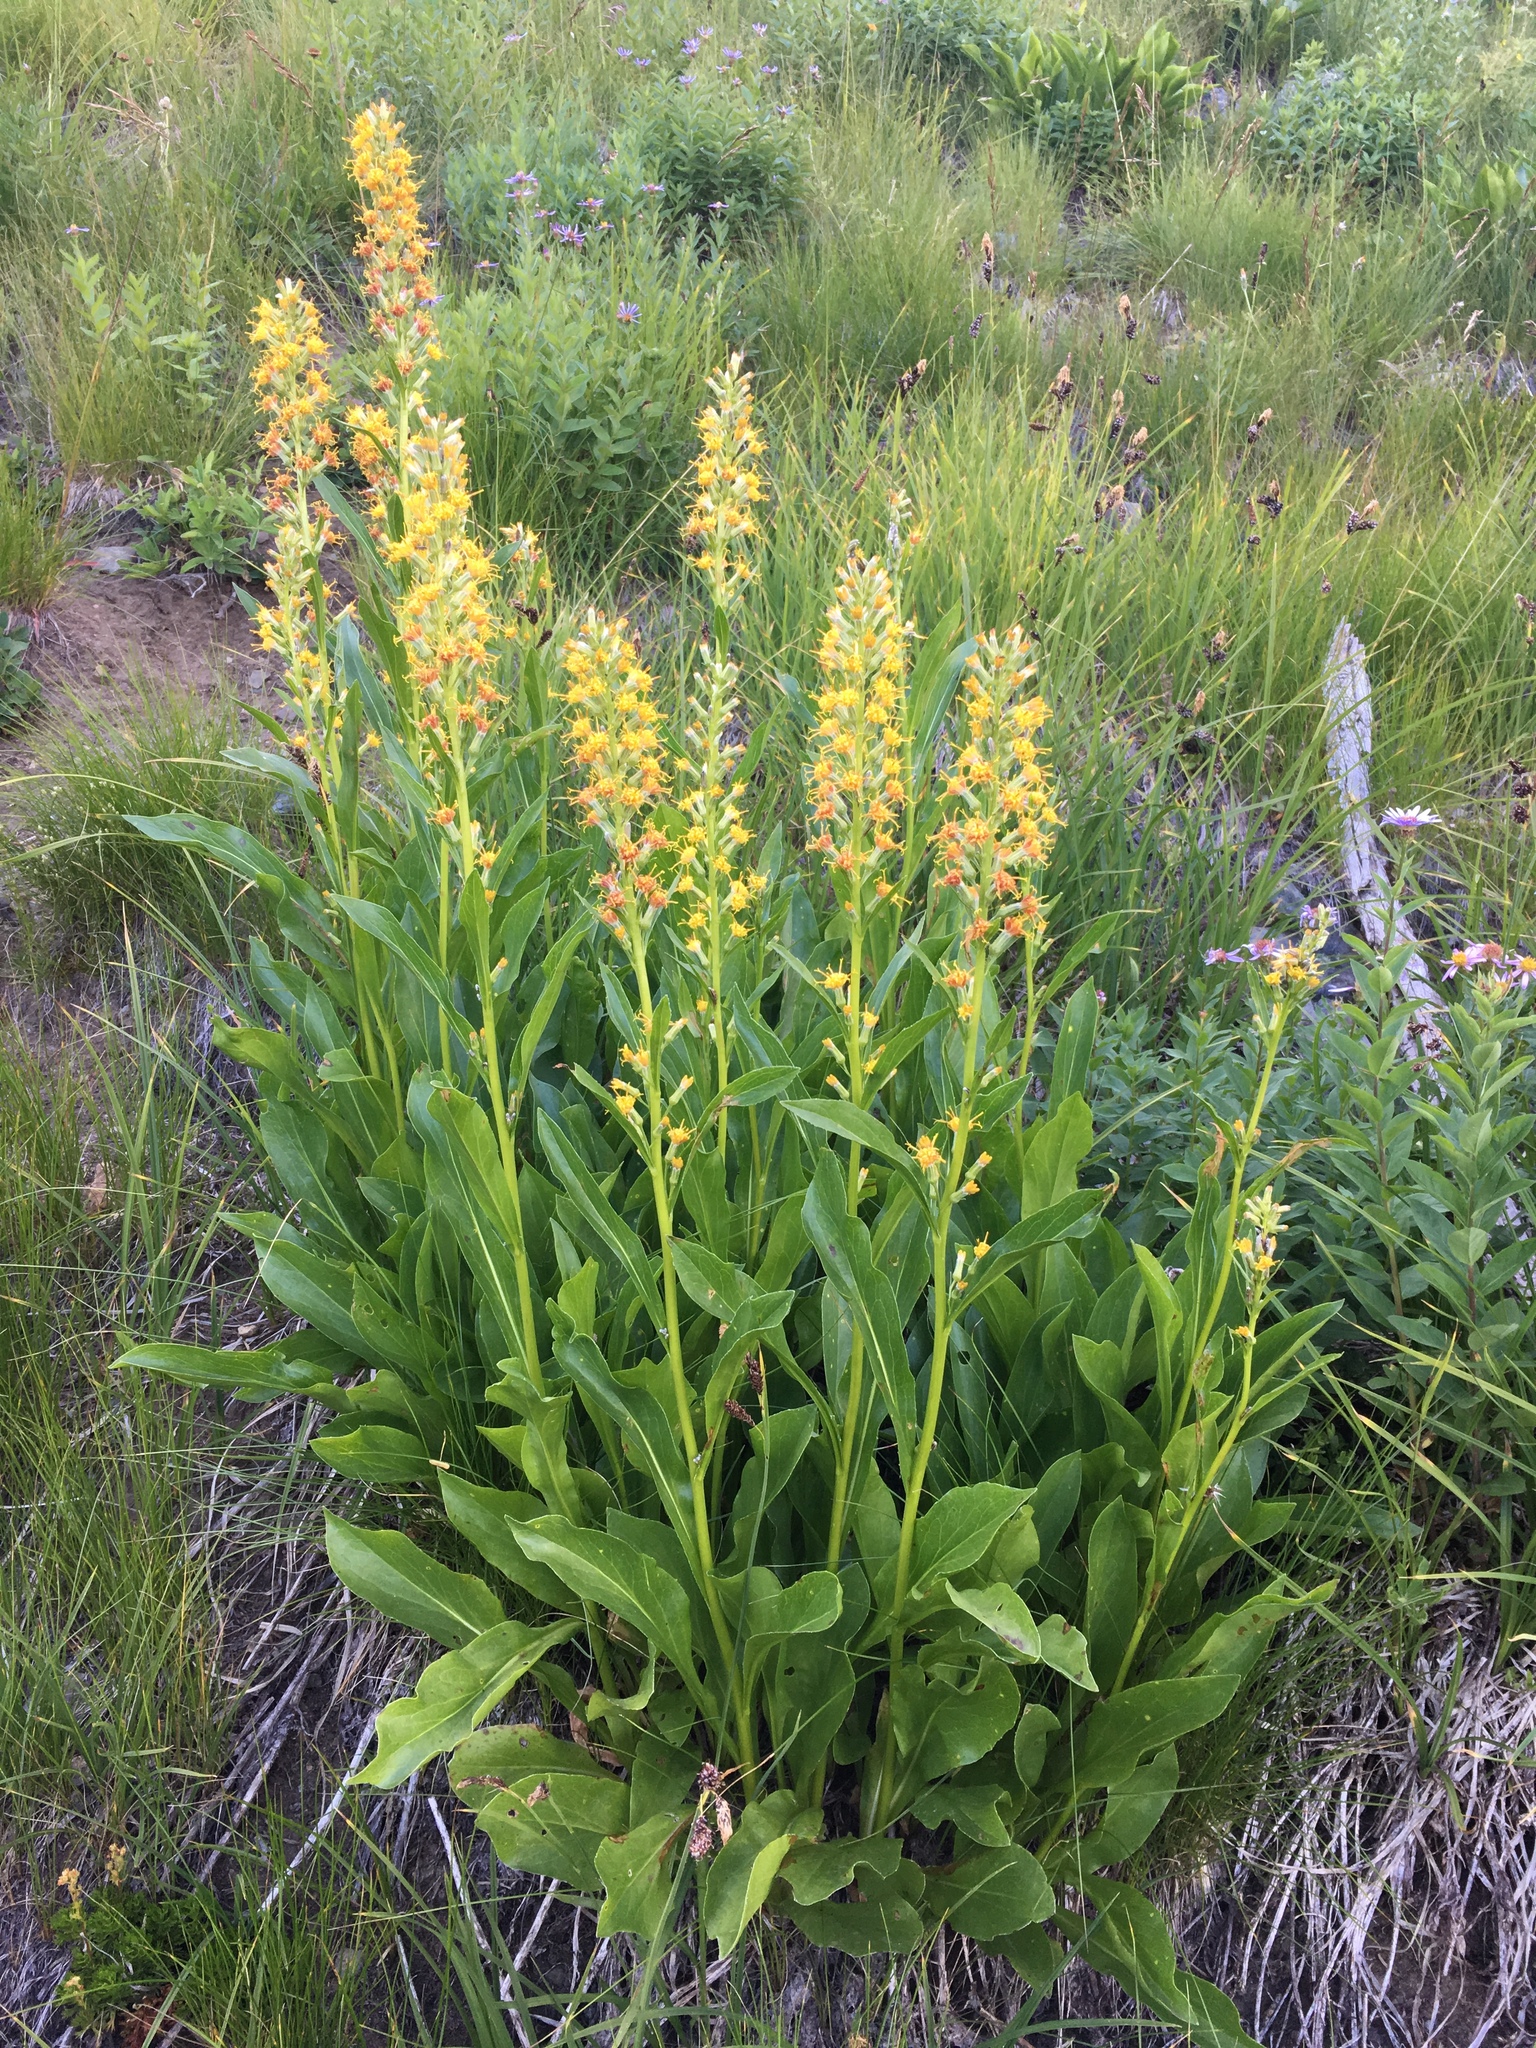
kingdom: Plantae
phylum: Tracheophyta
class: Magnoliopsida
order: Asterales
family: Asteraceae
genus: Rainiera
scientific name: Rainiera stricta
